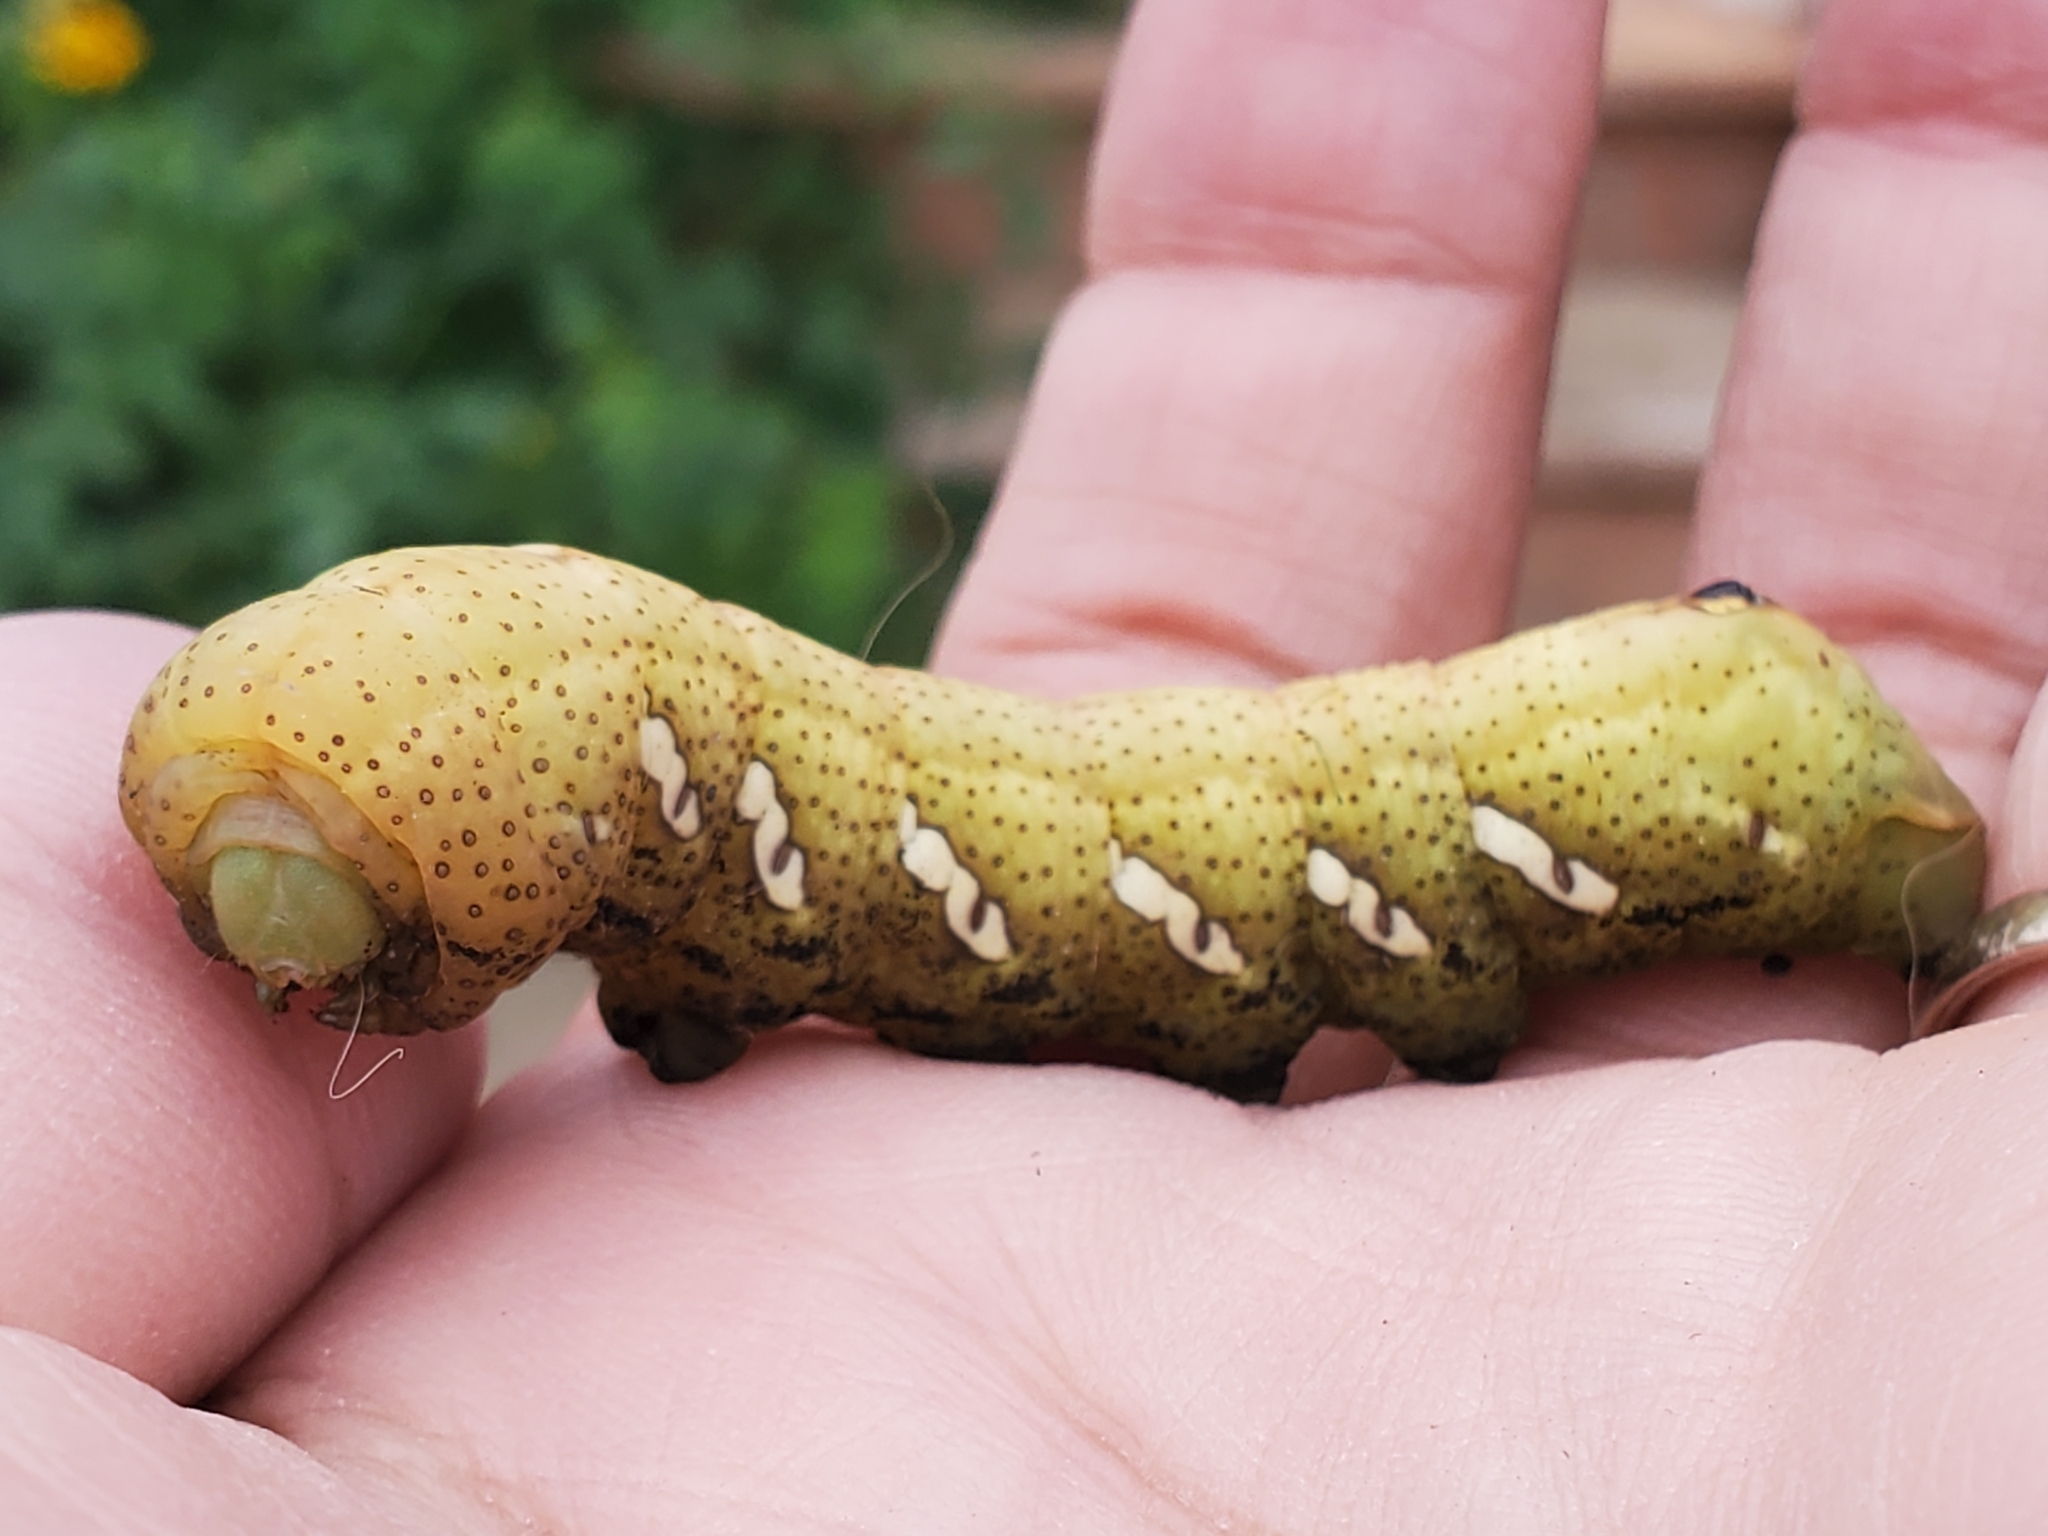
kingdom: Animalia
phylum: Arthropoda
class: Insecta
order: Lepidoptera
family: Sphingidae
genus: Eumorpha
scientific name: Eumorpha achemon
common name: Achemon sphinx
